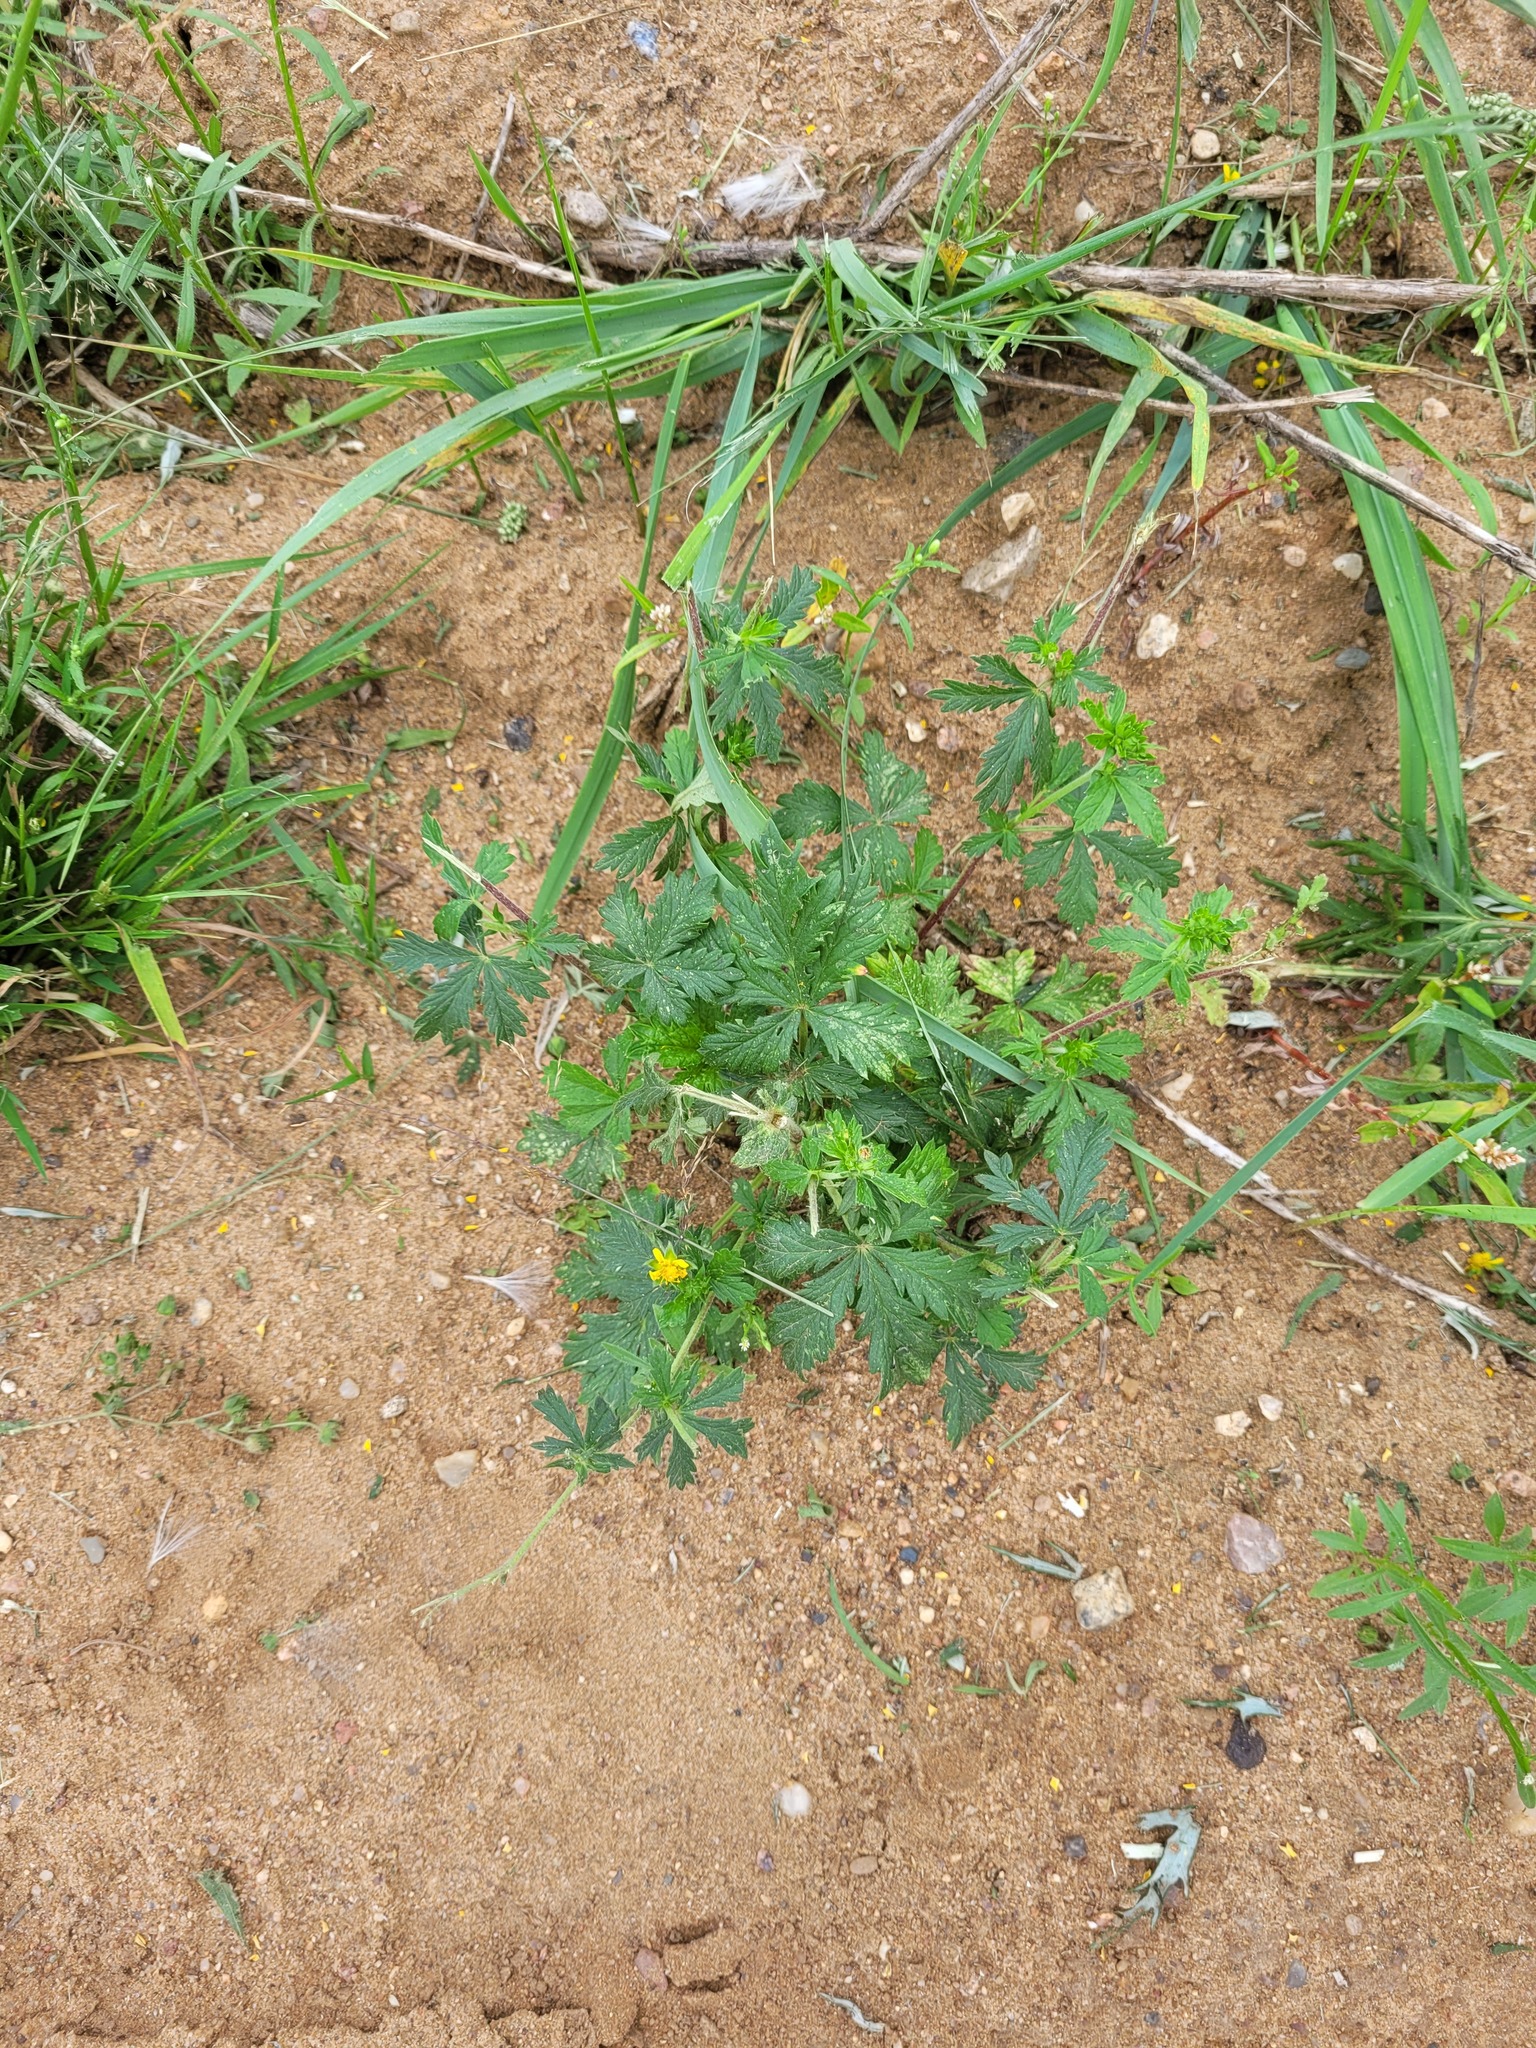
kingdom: Plantae
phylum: Tracheophyta
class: Magnoliopsida
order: Rosales
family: Rosaceae
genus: Potentilla
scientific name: Potentilla intermedia
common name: Downy cinquefoil
